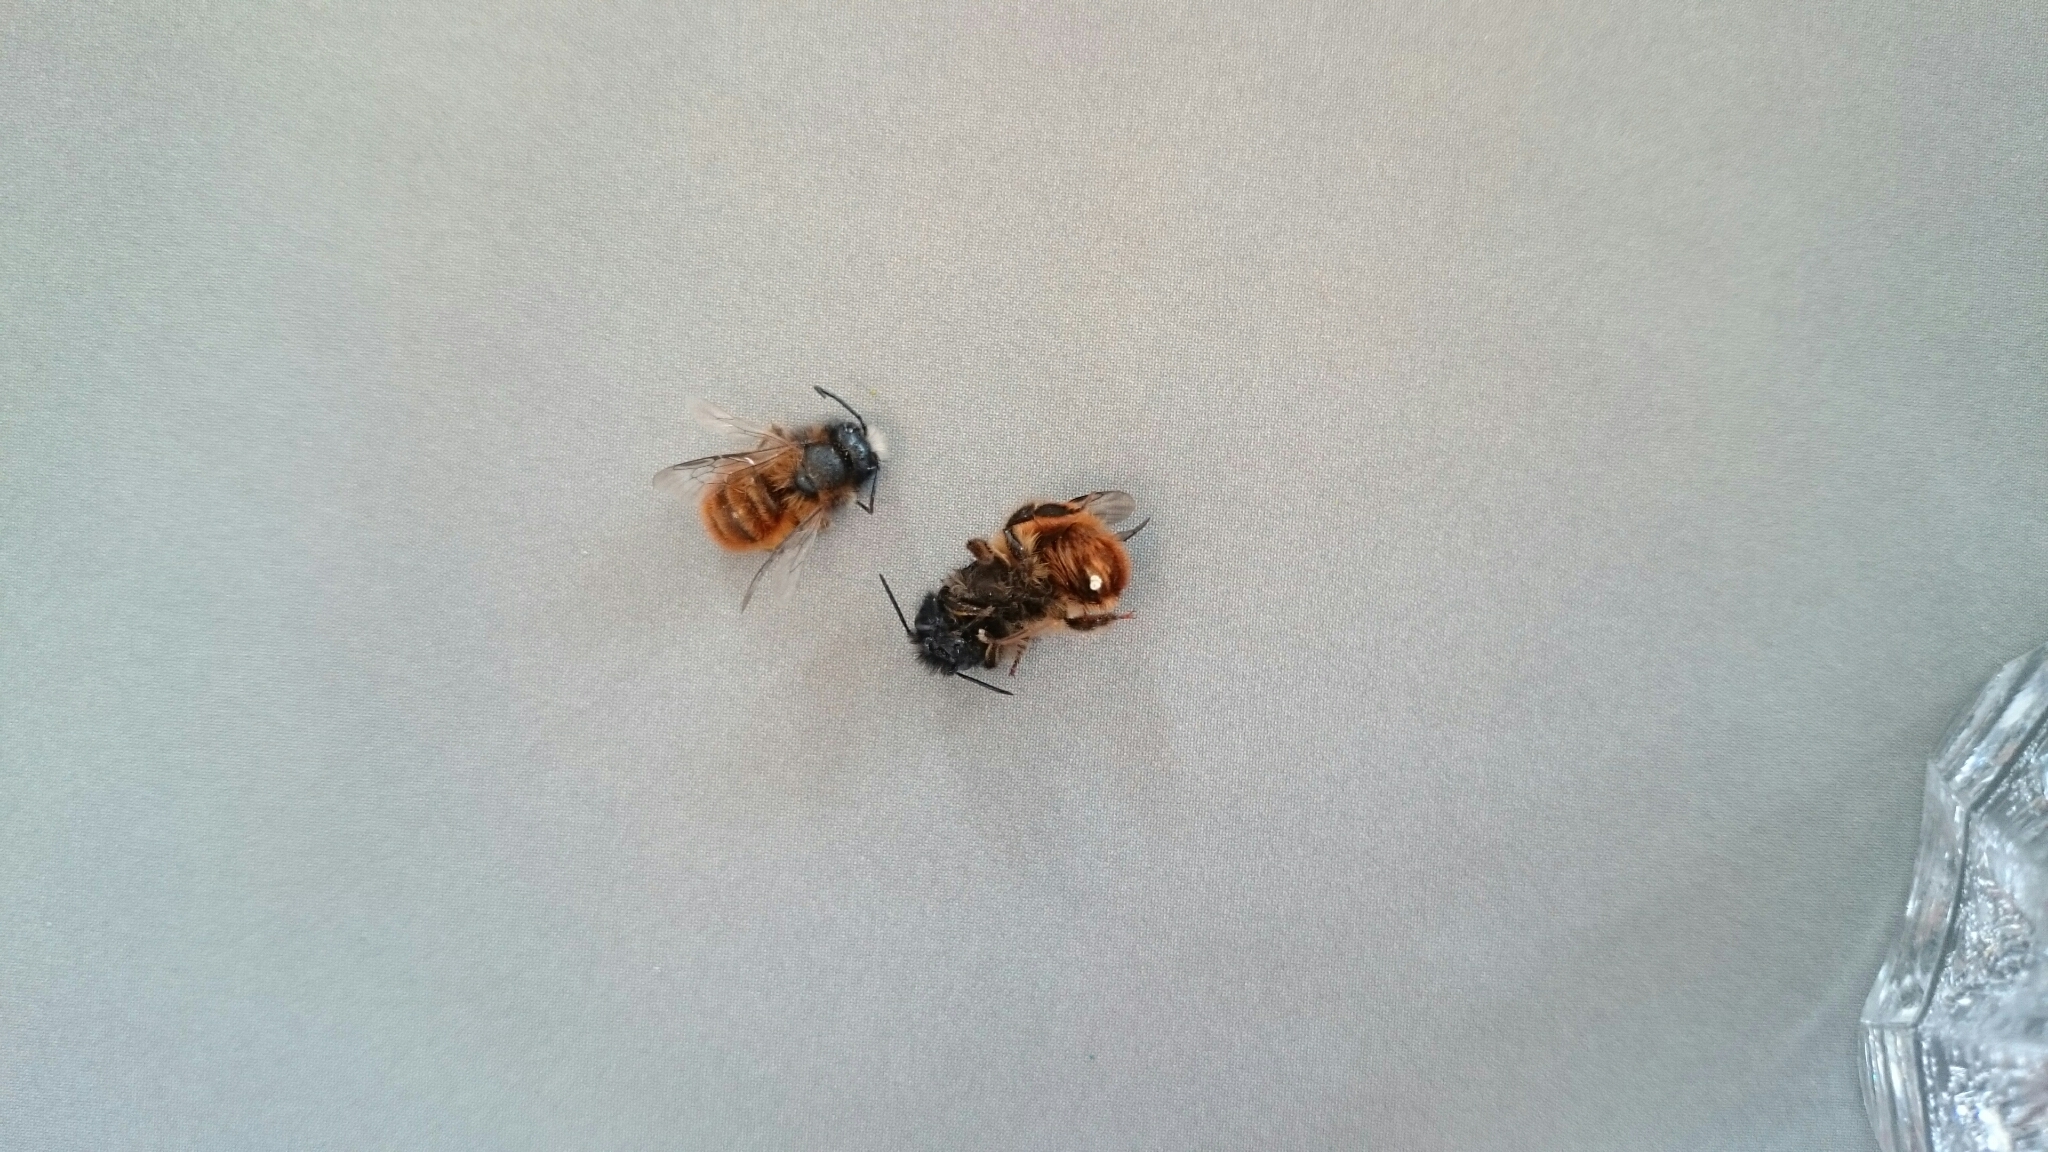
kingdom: Animalia
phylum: Arthropoda
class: Insecta
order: Hymenoptera
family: Megachilidae
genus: Osmia
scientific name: Osmia bicornis
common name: Red mason bee
